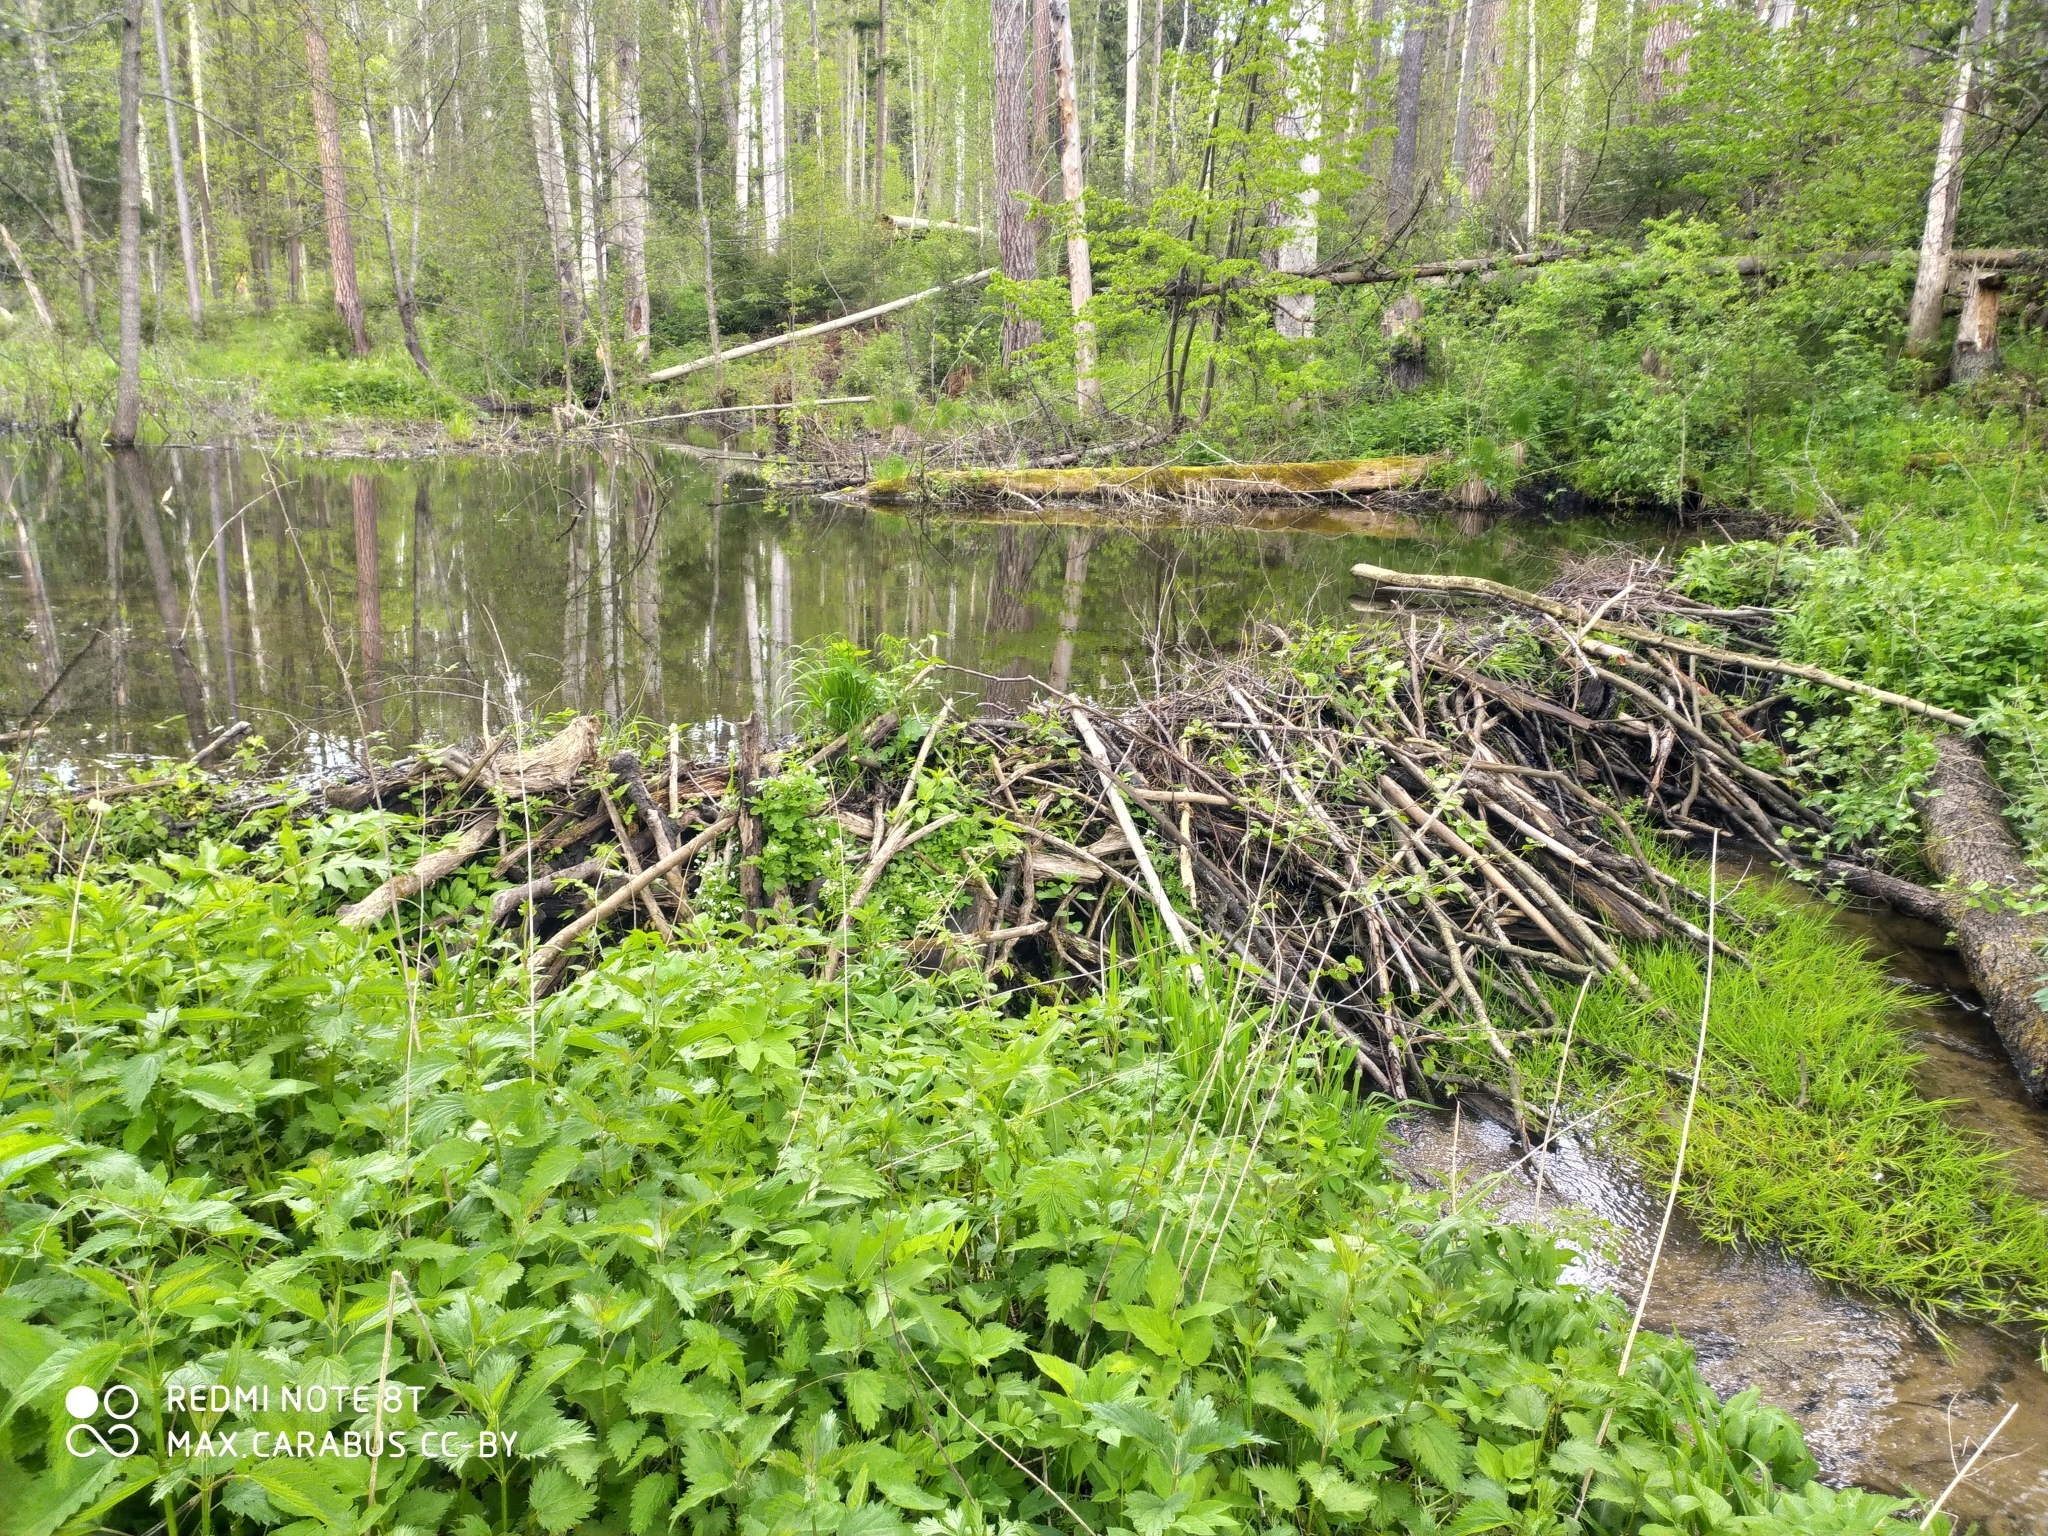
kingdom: Animalia
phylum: Chordata
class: Mammalia
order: Rodentia
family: Castoridae
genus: Castor
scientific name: Castor fiber
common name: Eurasian beaver
